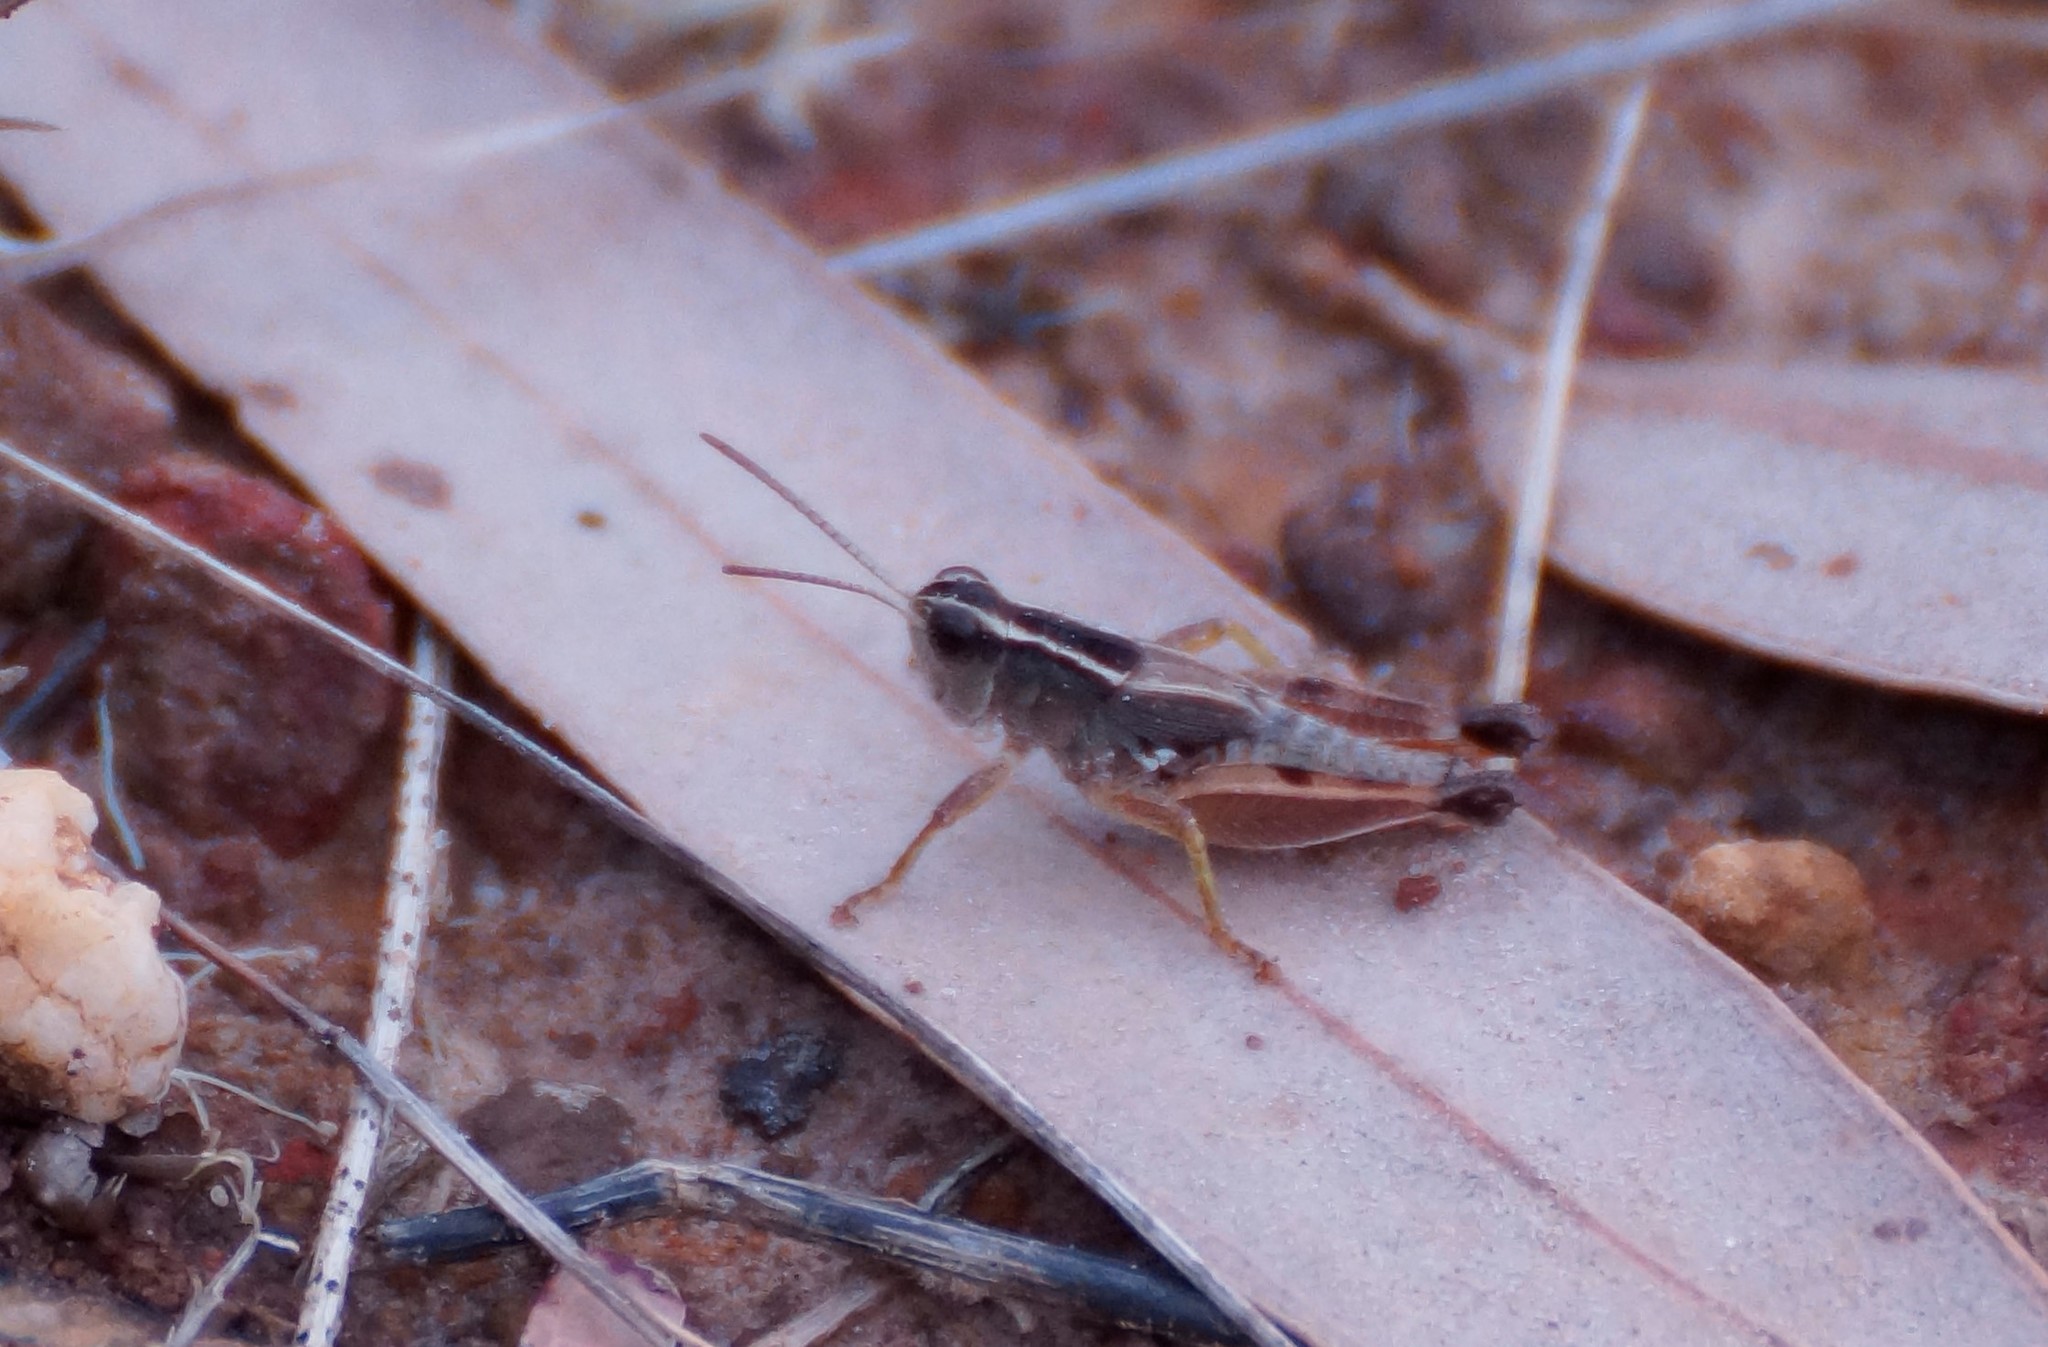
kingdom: Animalia
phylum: Arthropoda
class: Insecta
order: Orthoptera
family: Acrididae
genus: Phaulacridium
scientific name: Phaulacridium vittatum
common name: Wingless grasshopper
